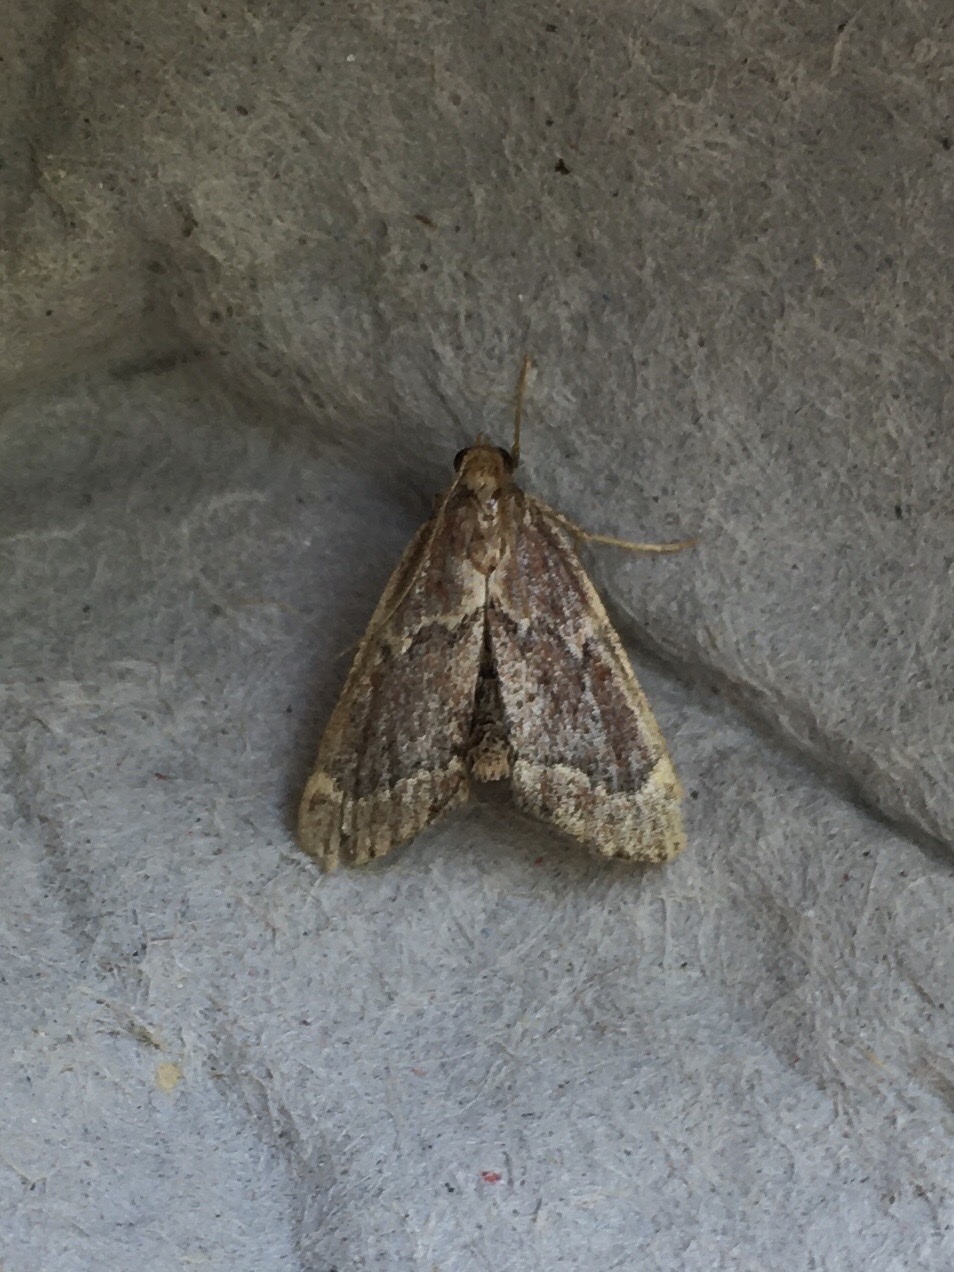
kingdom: Animalia
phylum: Arthropoda
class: Insecta
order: Lepidoptera
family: Pyralidae
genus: Hypsopygia
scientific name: Hypsopygia intermedialis
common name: Red-shawled moth
